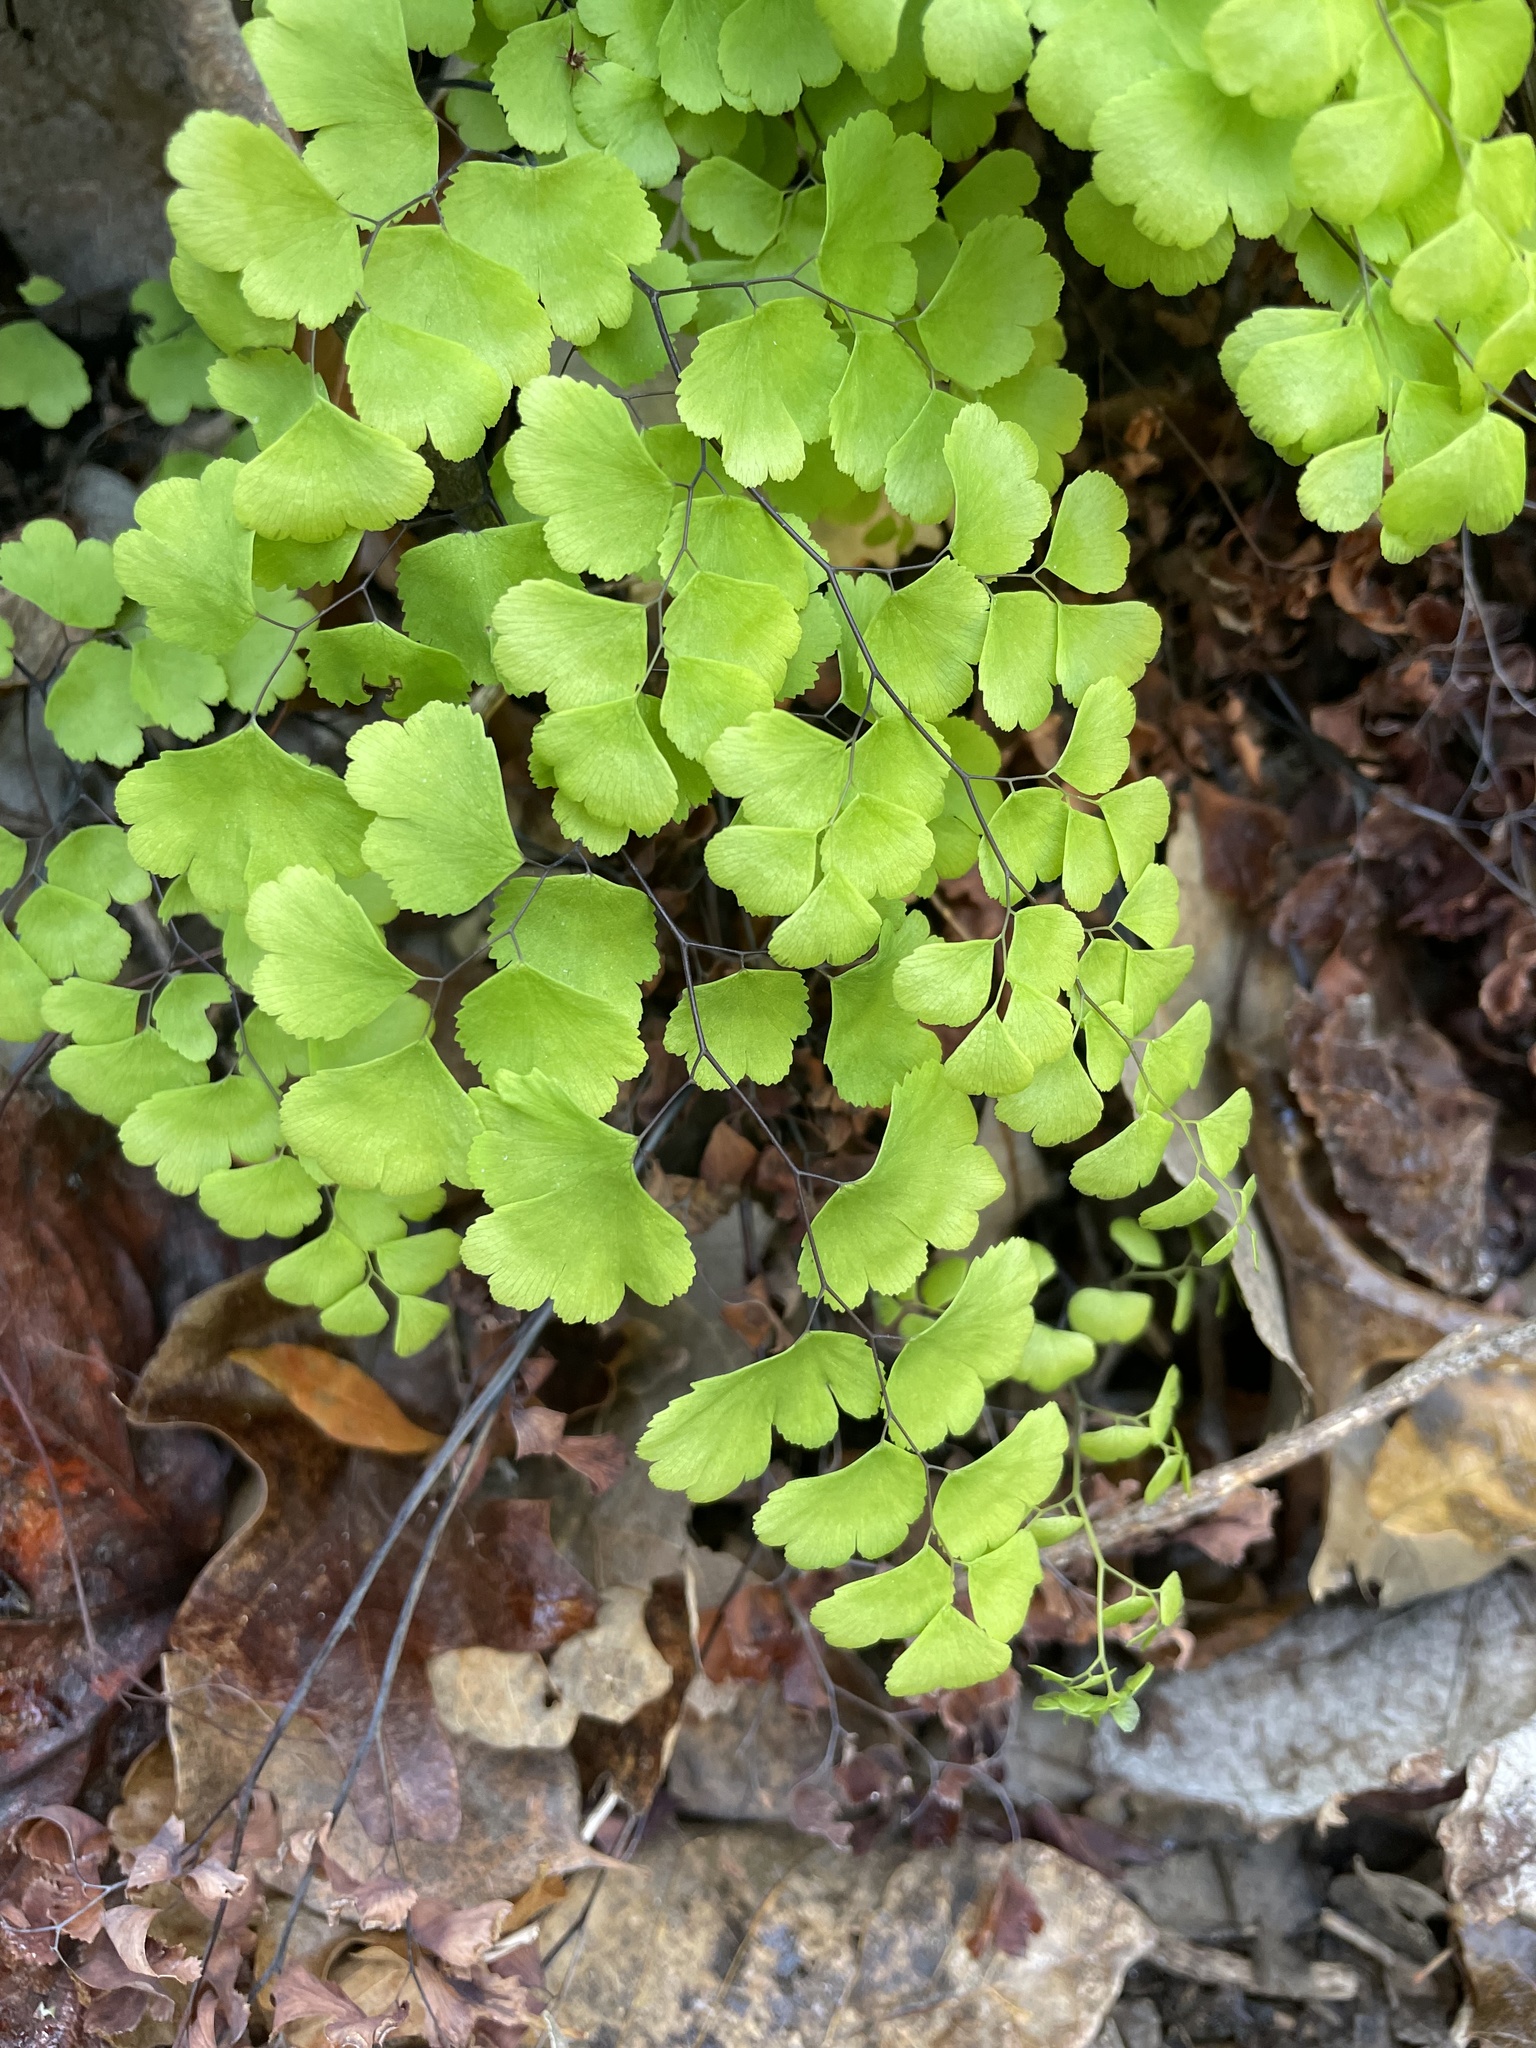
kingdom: Plantae
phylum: Tracheophyta
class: Polypodiopsida
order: Polypodiales
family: Pteridaceae
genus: Adiantum
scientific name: Adiantum capillus-veneris
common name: Maidenhair fern
